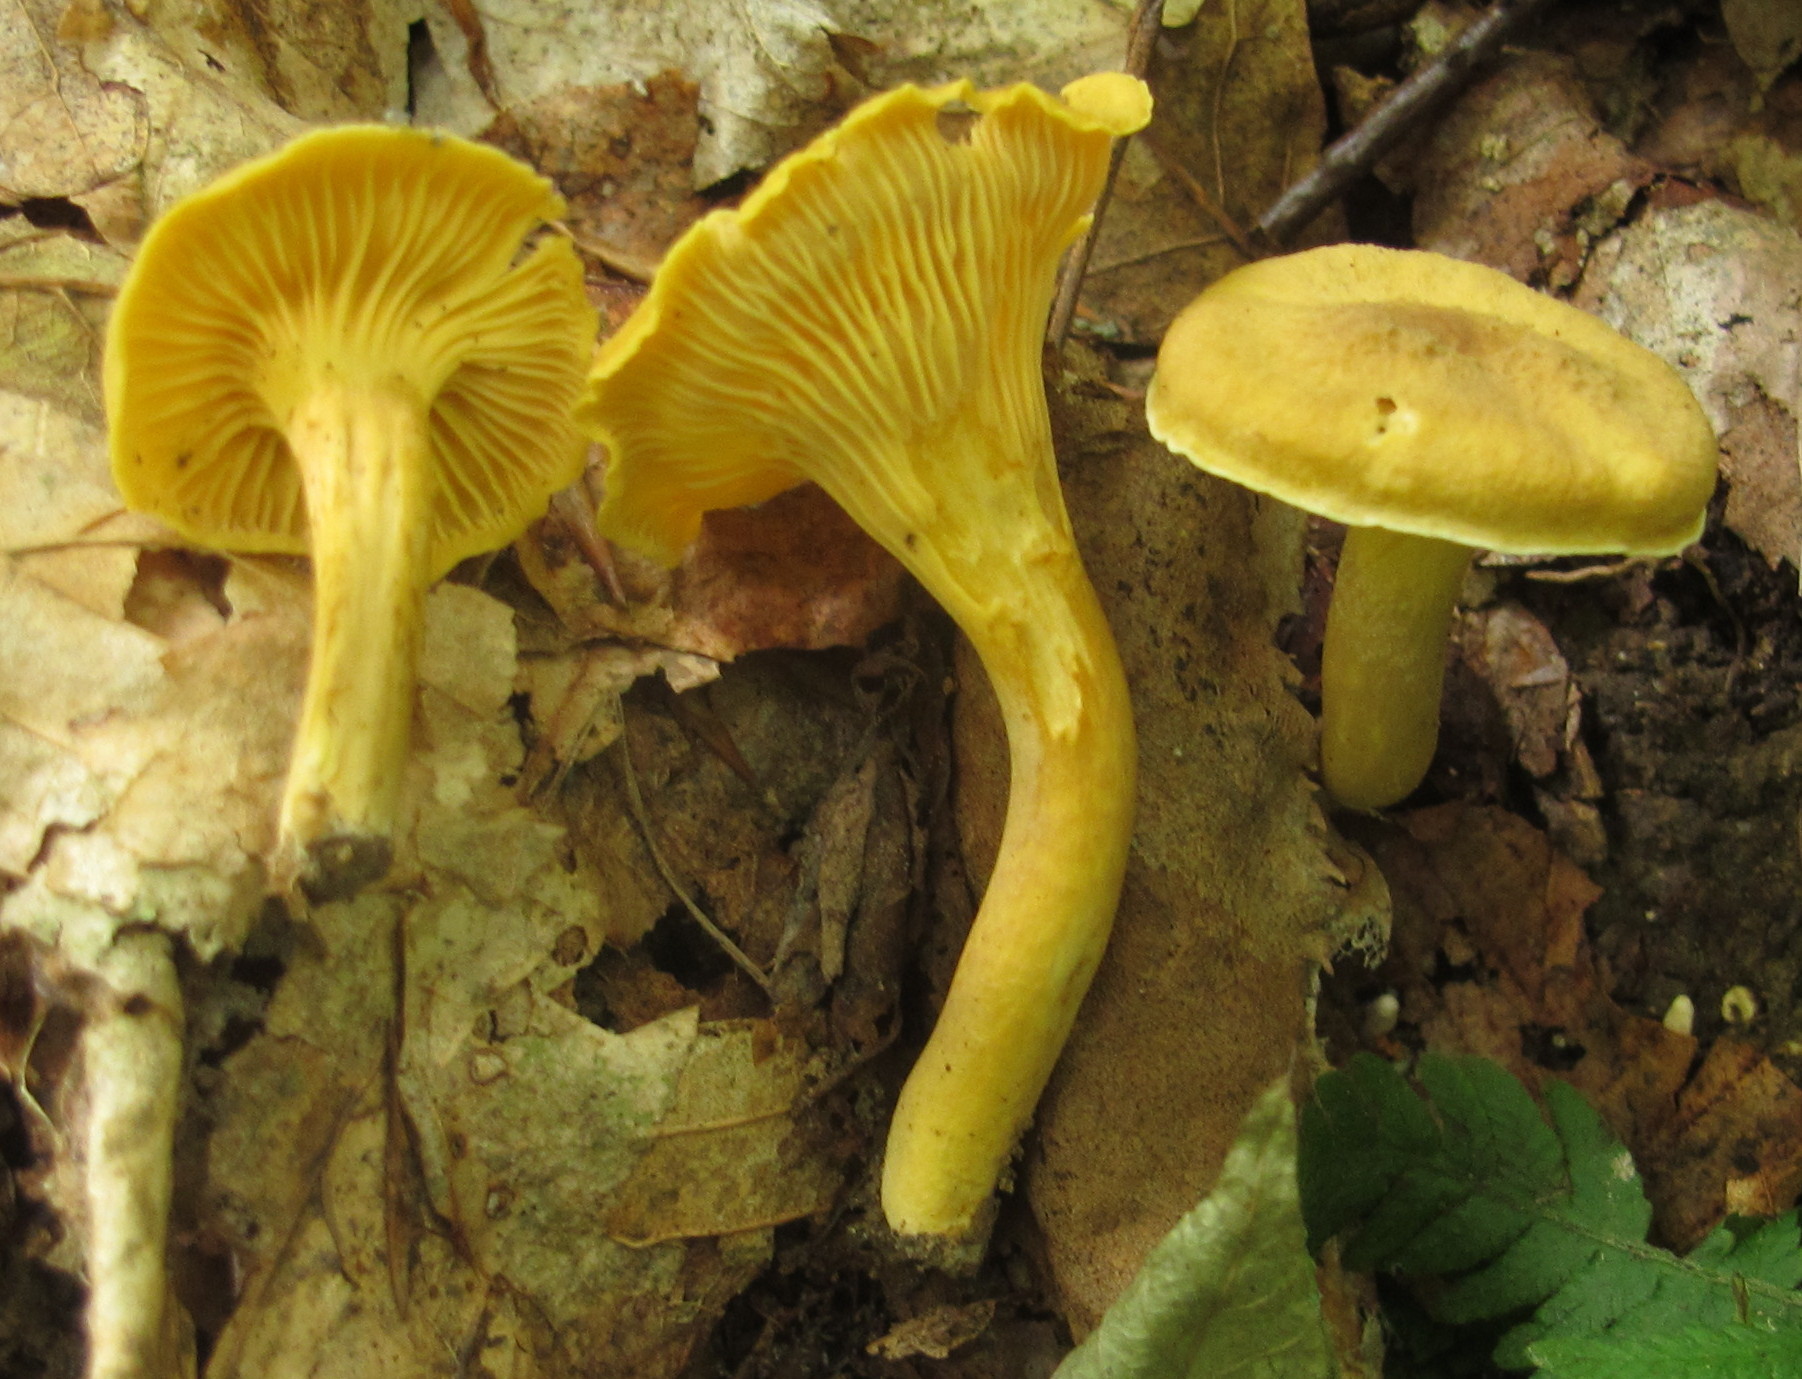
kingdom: Fungi
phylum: Basidiomycota
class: Agaricomycetes
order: Cantharellales
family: Hydnaceae
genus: Cantharellus
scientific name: Cantharellus appalachiensis
